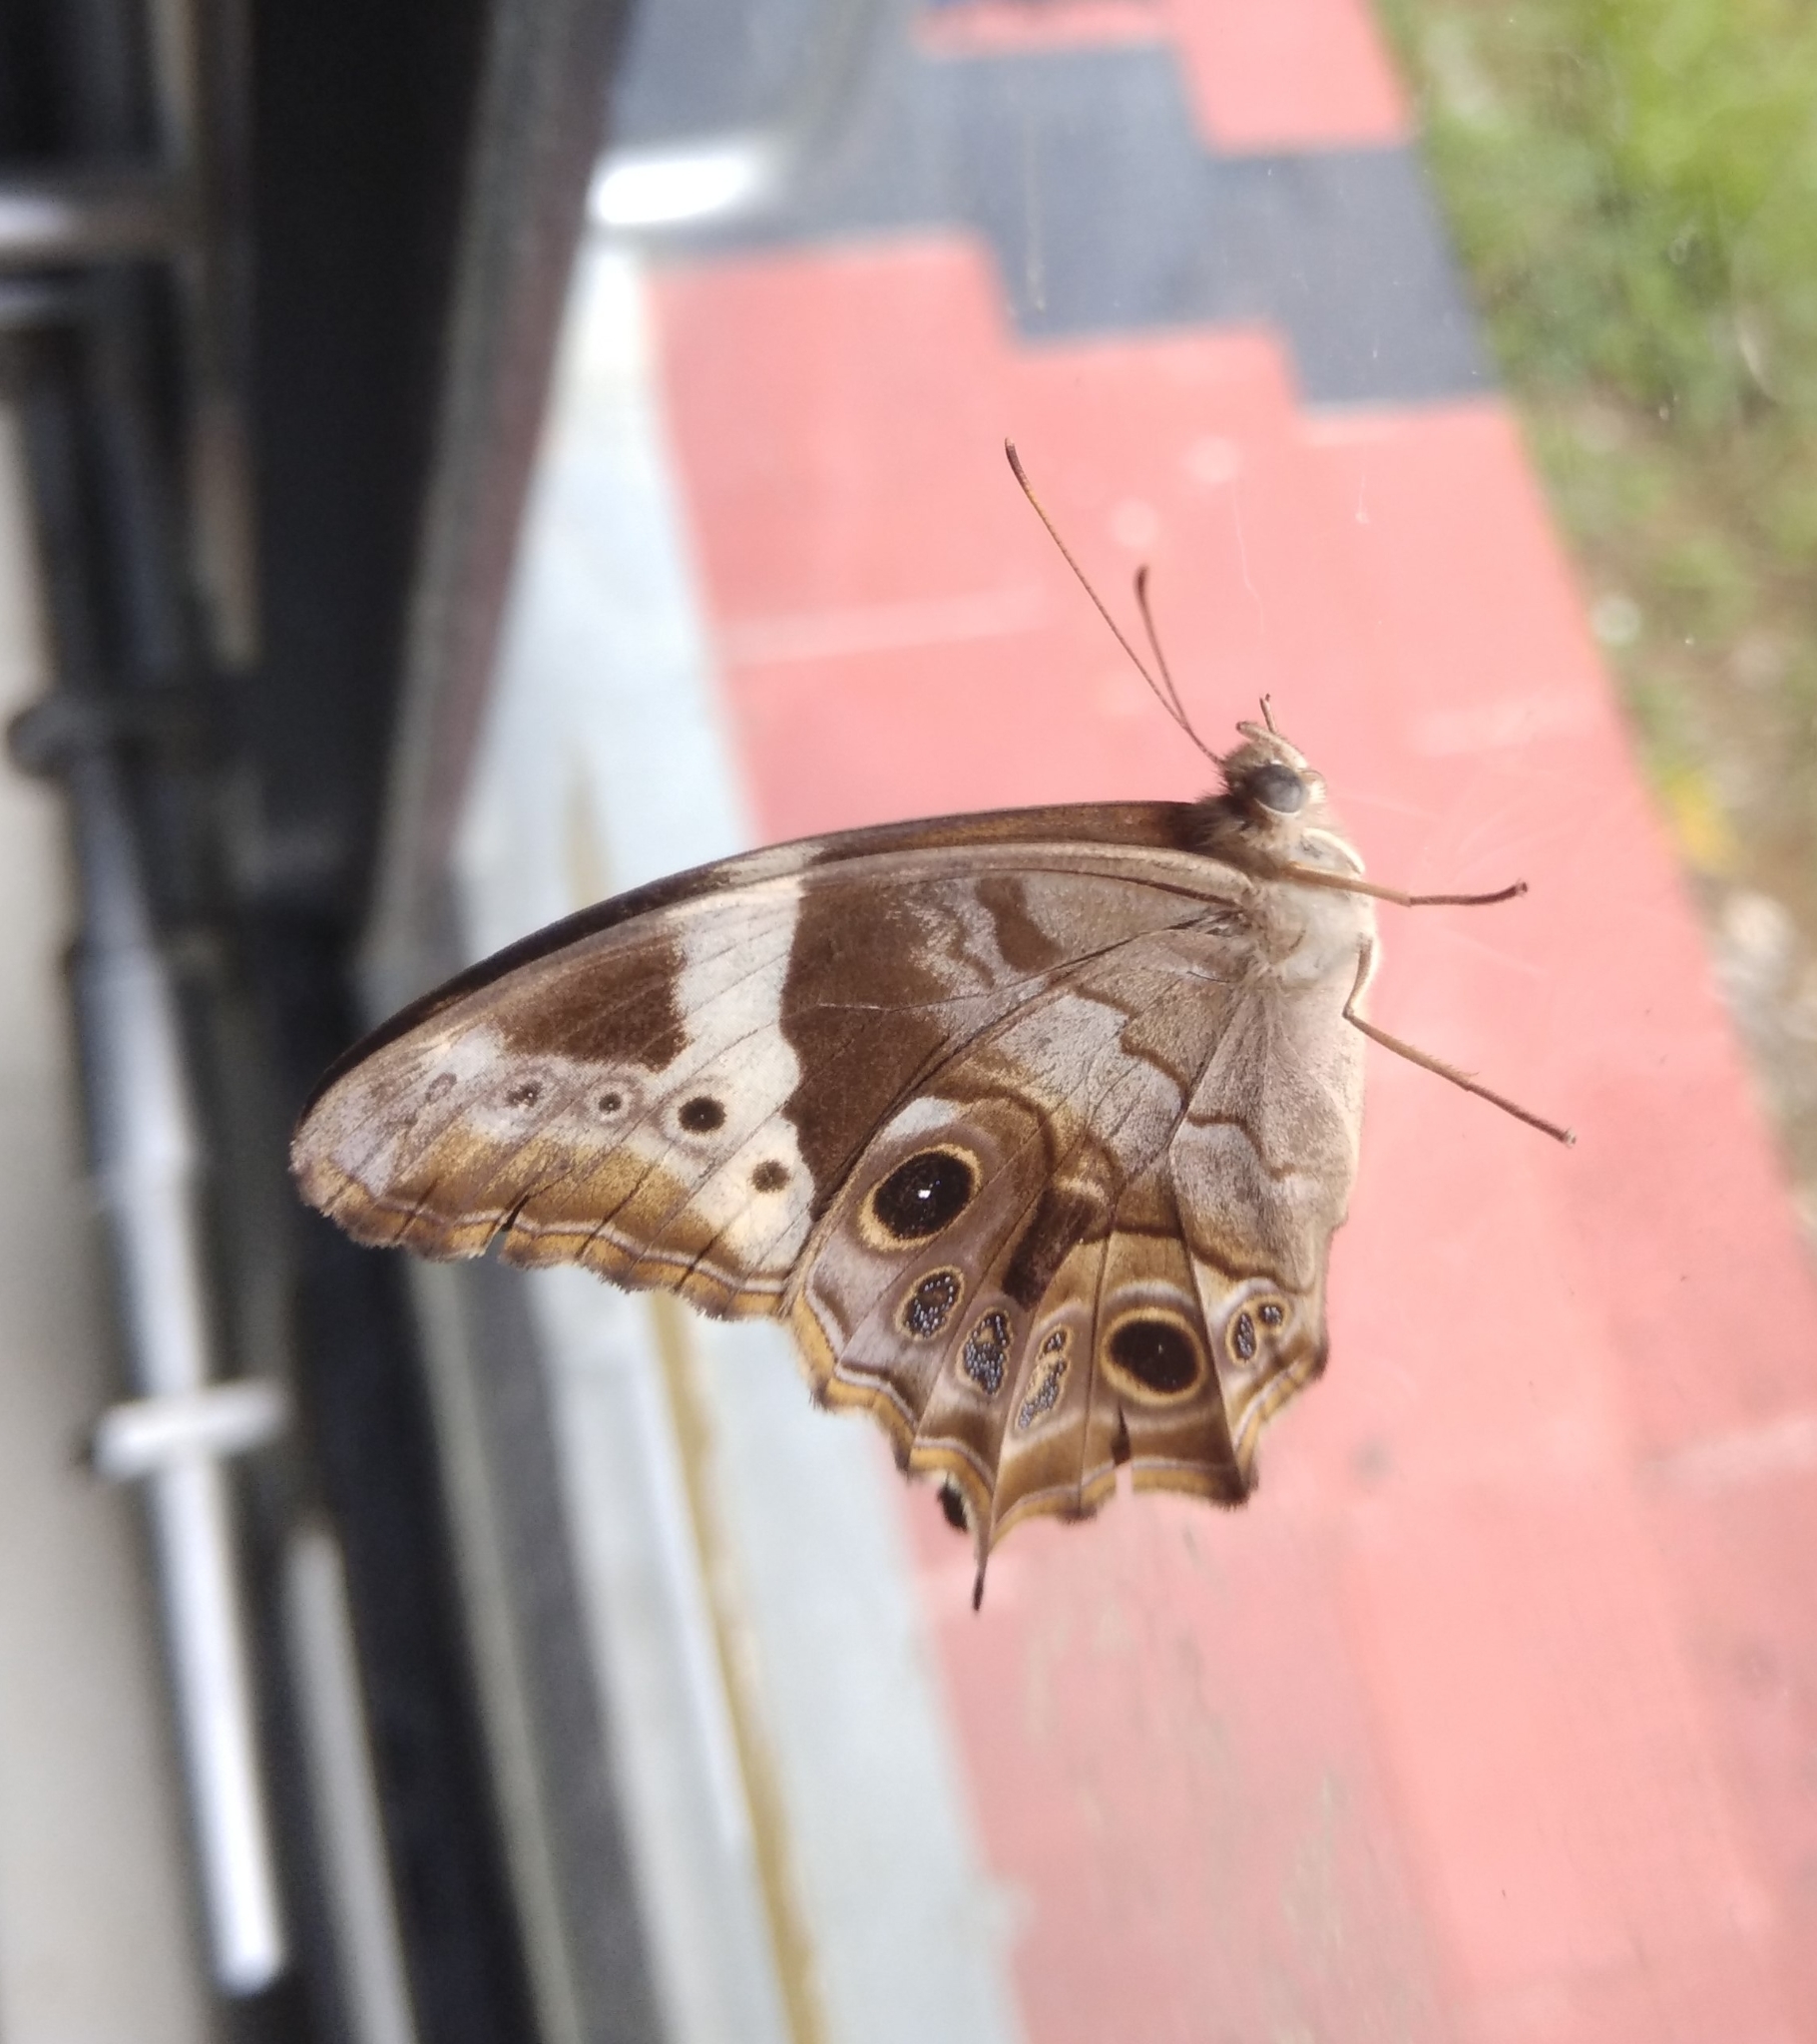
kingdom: Animalia
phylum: Arthropoda
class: Insecta
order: Lepidoptera
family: Nymphalidae
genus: Lethe
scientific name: Lethe drypetis
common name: Tamil treebrown
